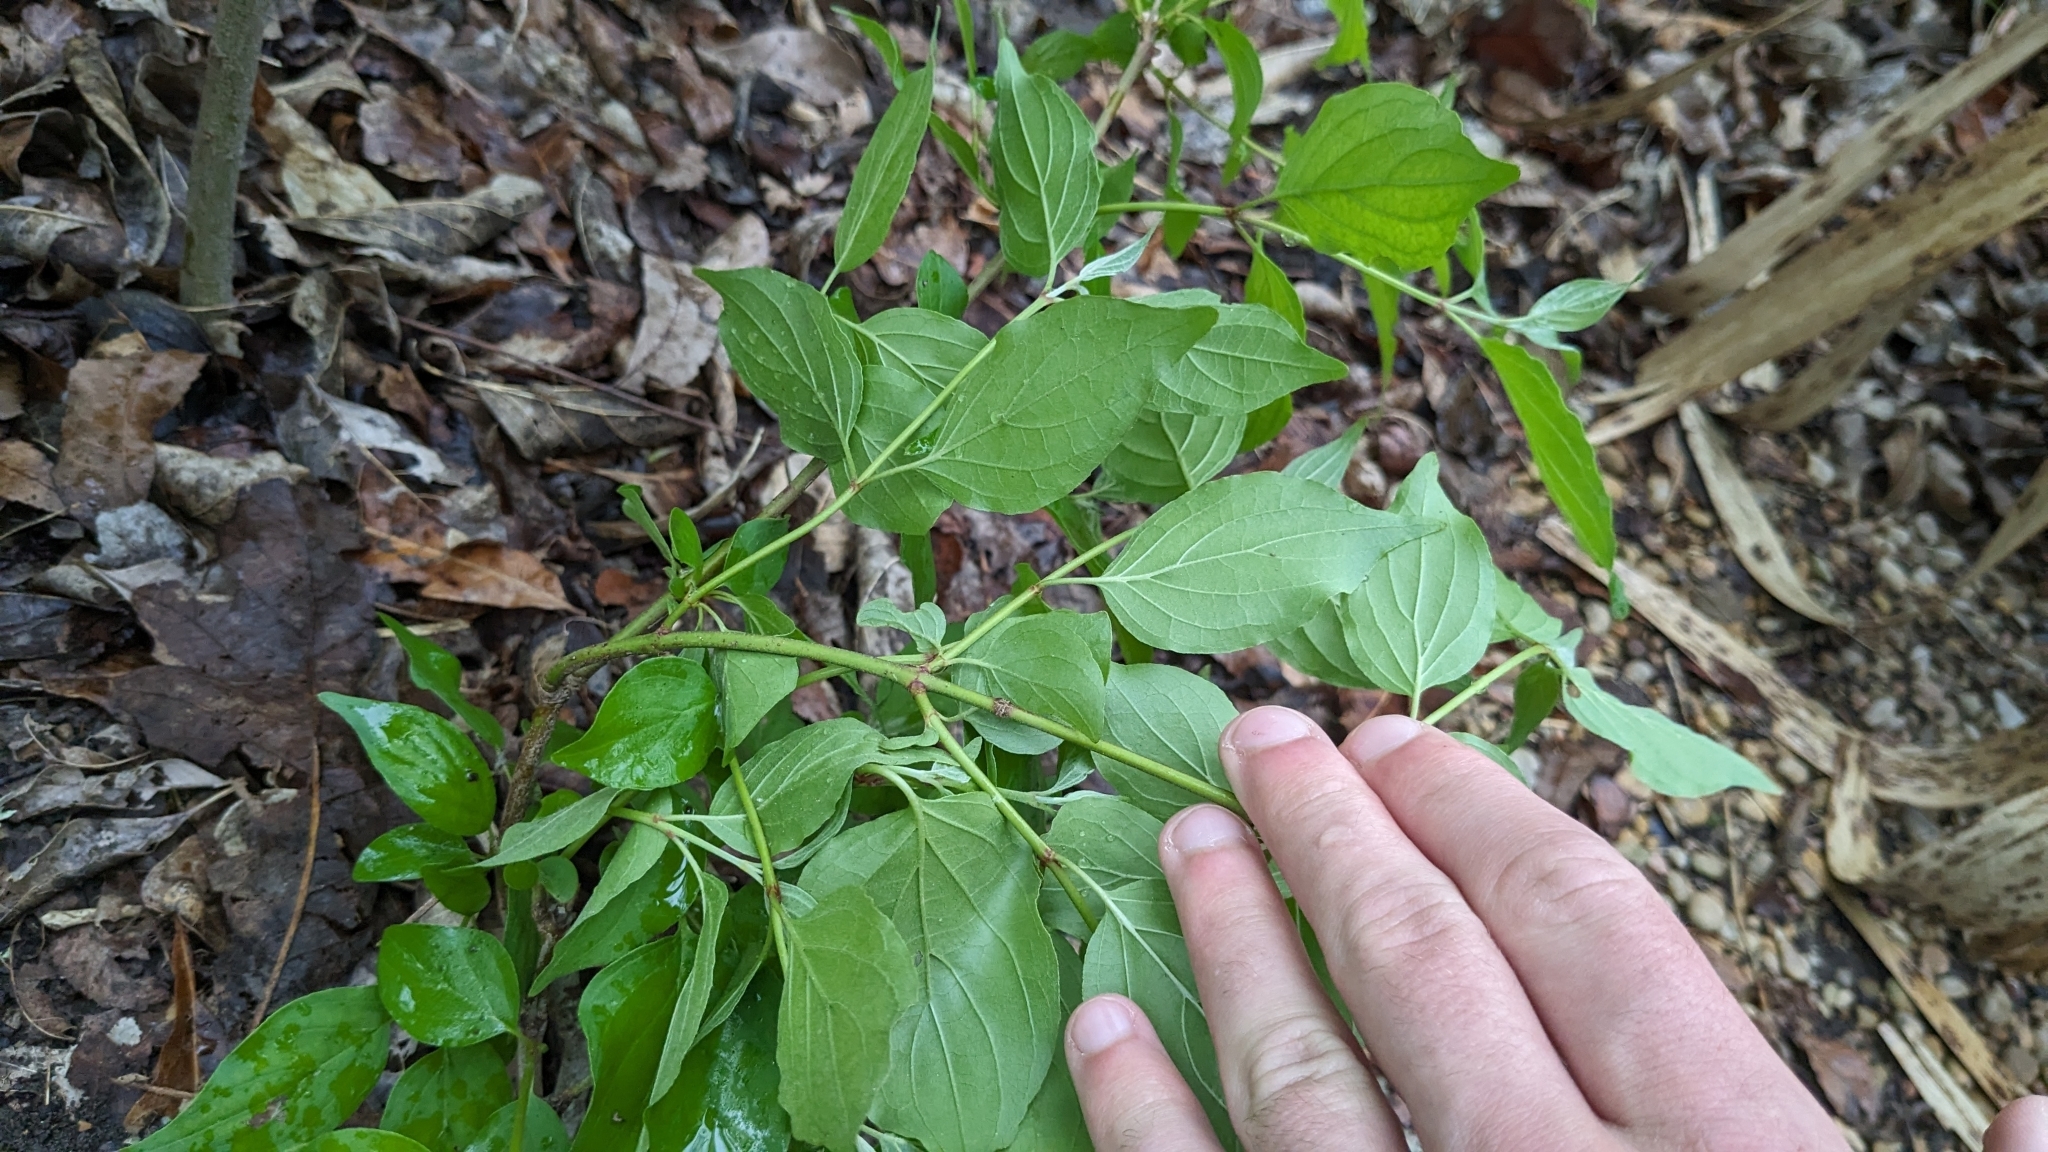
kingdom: Plantae
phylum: Tracheophyta
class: Magnoliopsida
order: Cornales
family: Cornaceae
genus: Cornus
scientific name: Cornus drummondii
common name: Rough-leaf dogwood
